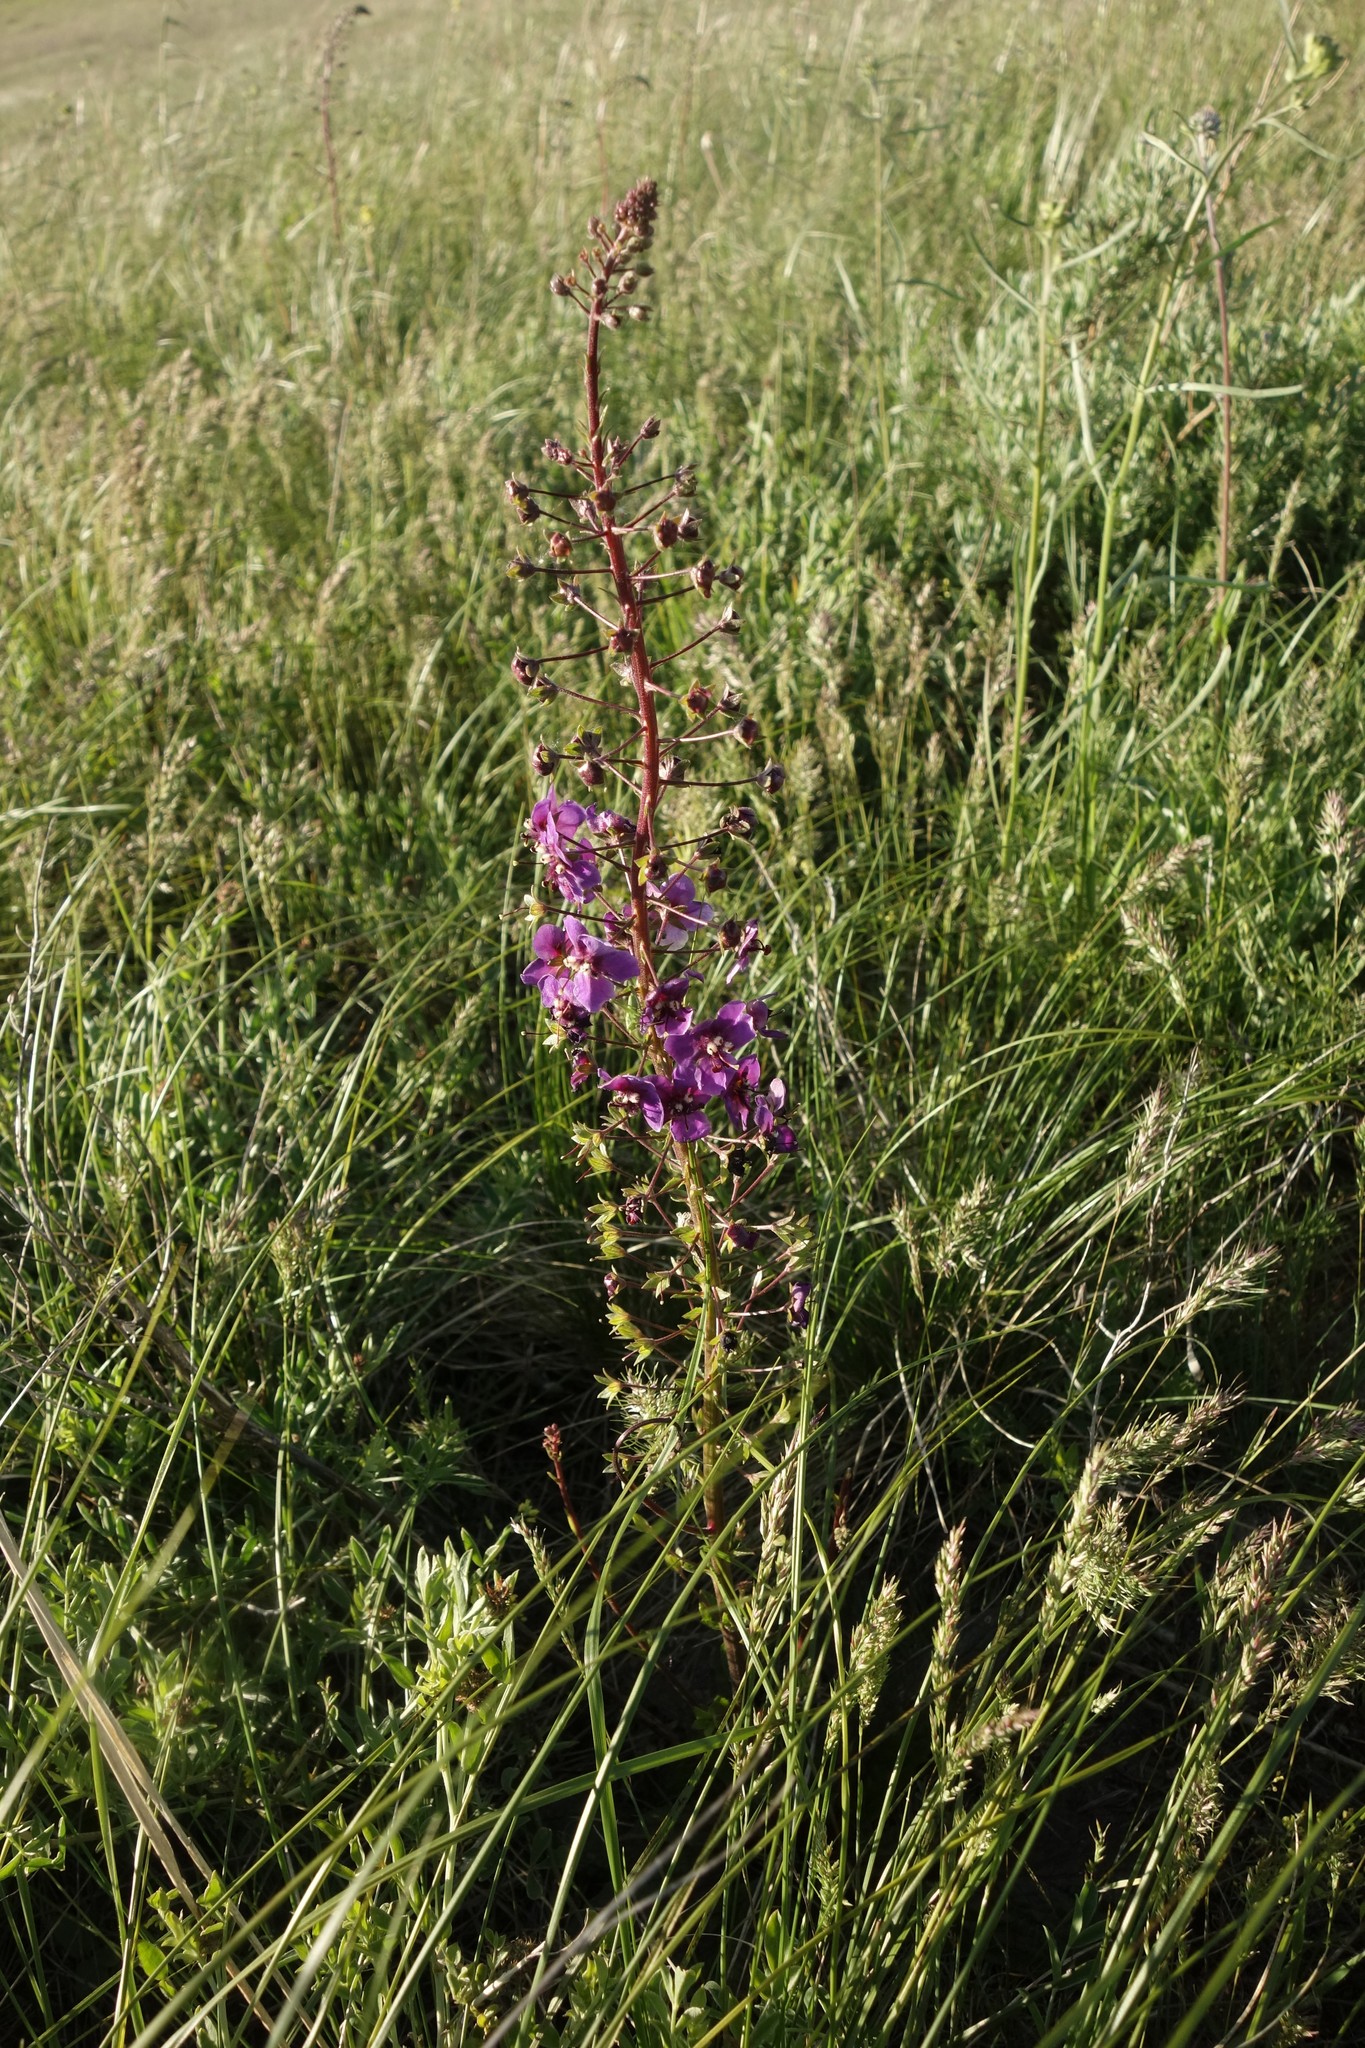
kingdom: Plantae
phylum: Tracheophyta
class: Magnoliopsida
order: Lamiales
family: Scrophulariaceae
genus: Verbascum
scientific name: Verbascum phoeniceum
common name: Purple mullein
